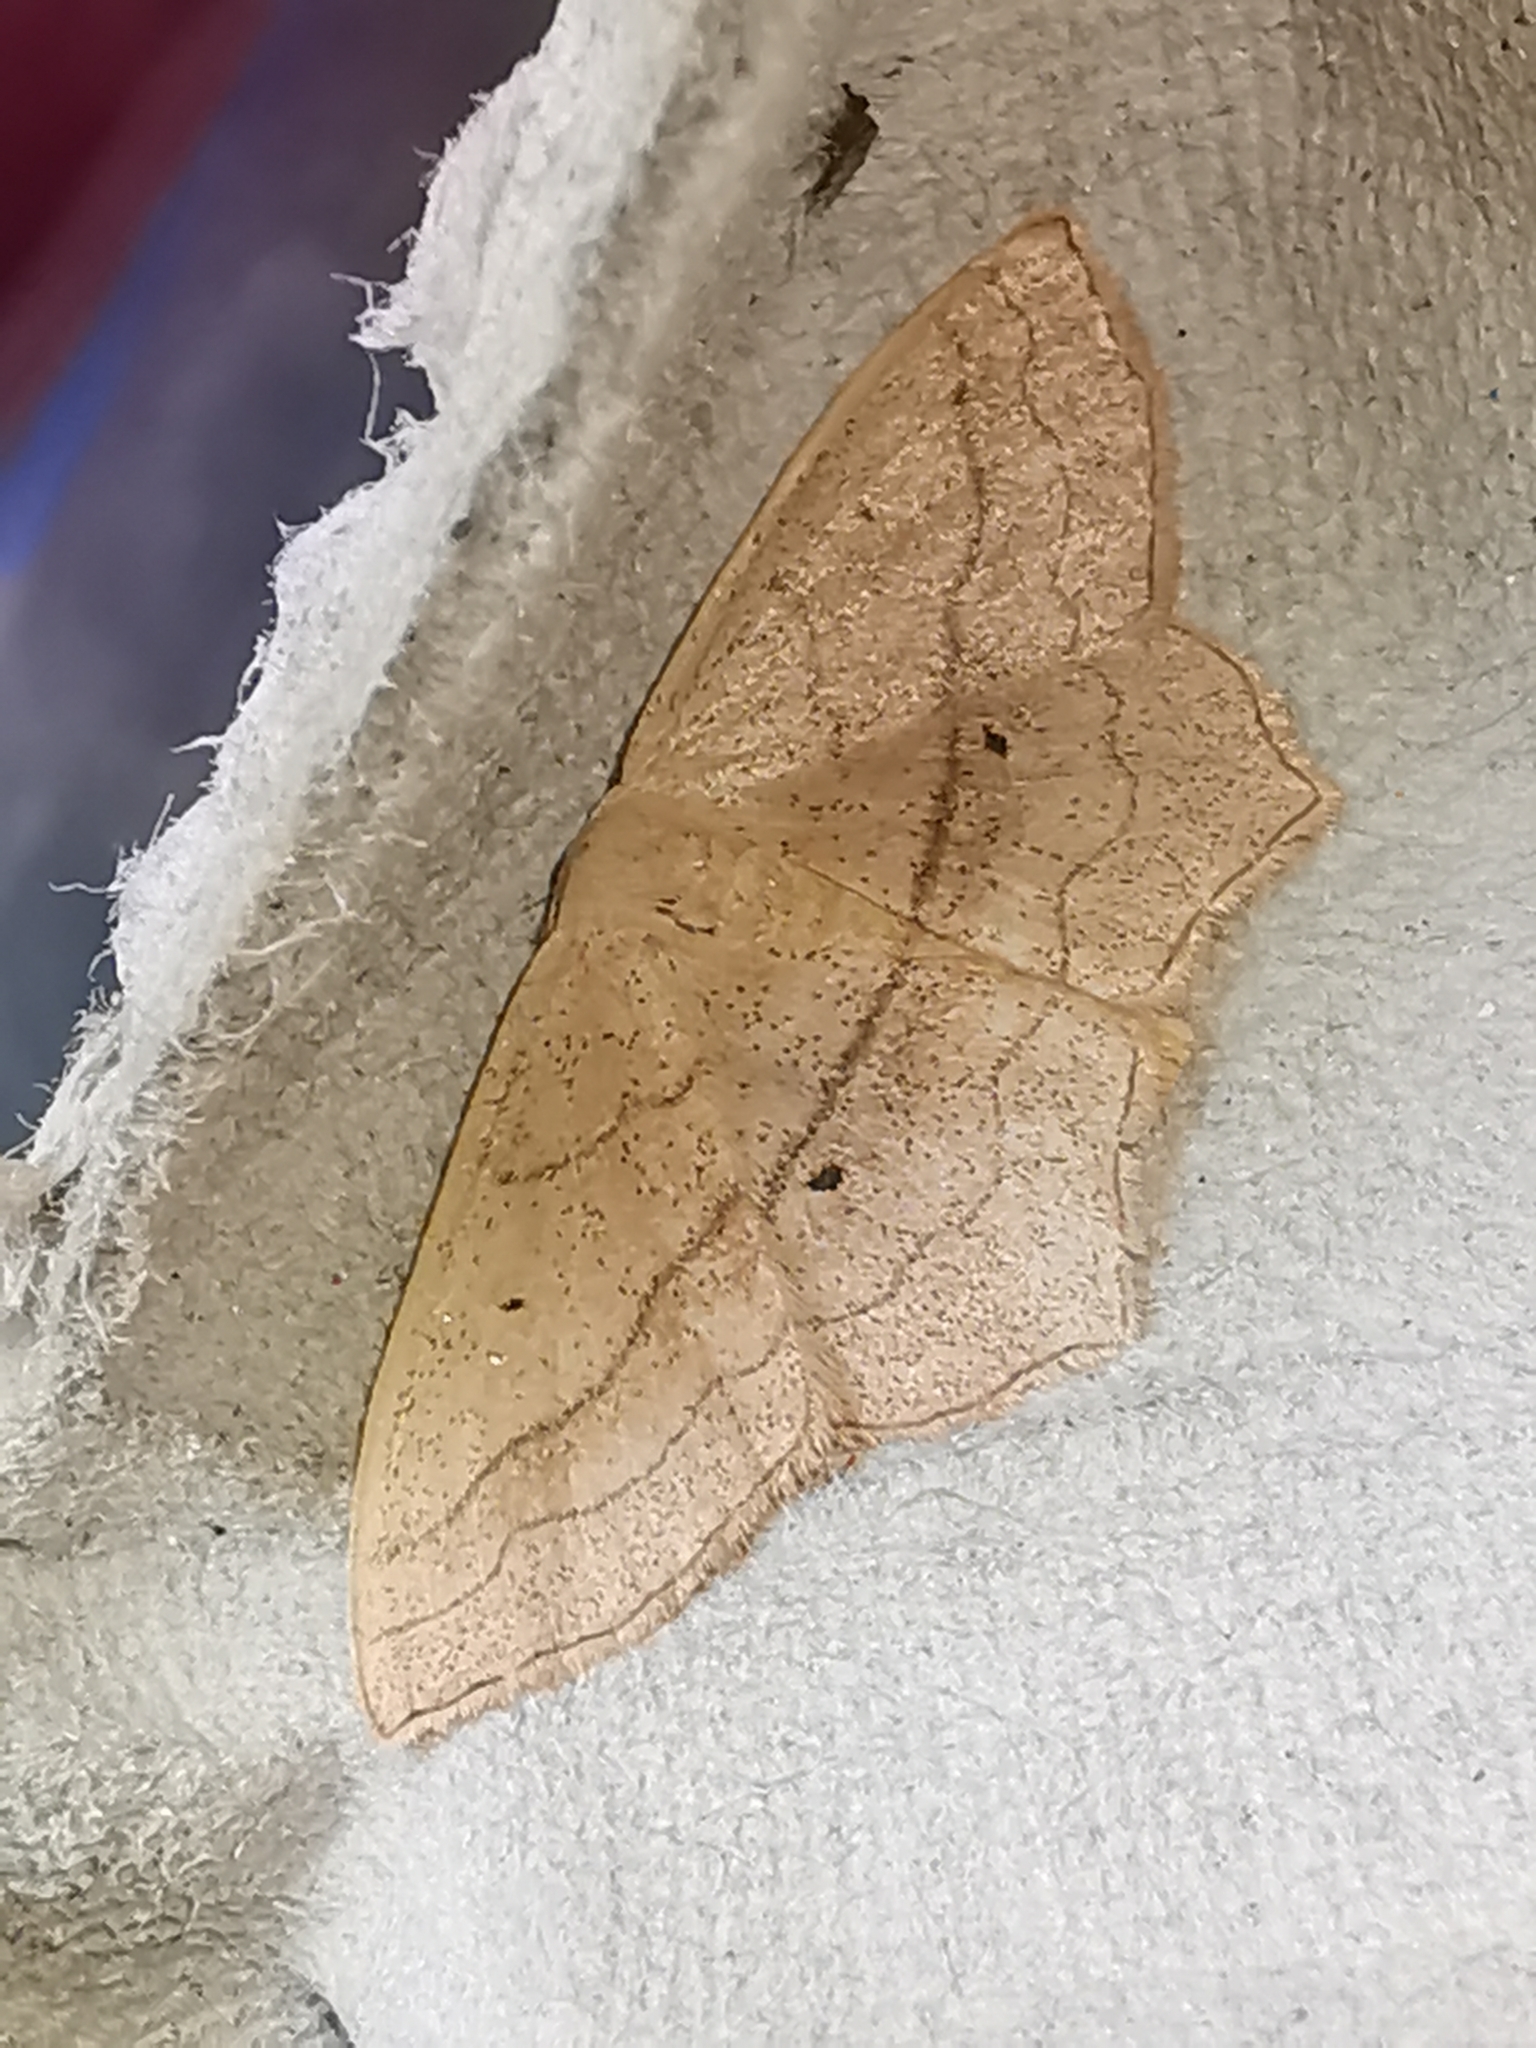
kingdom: Animalia
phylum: Arthropoda
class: Insecta
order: Lepidoptera
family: Geometridae
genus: Scopula
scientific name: Scopula imitaria
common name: Small blood-vein
